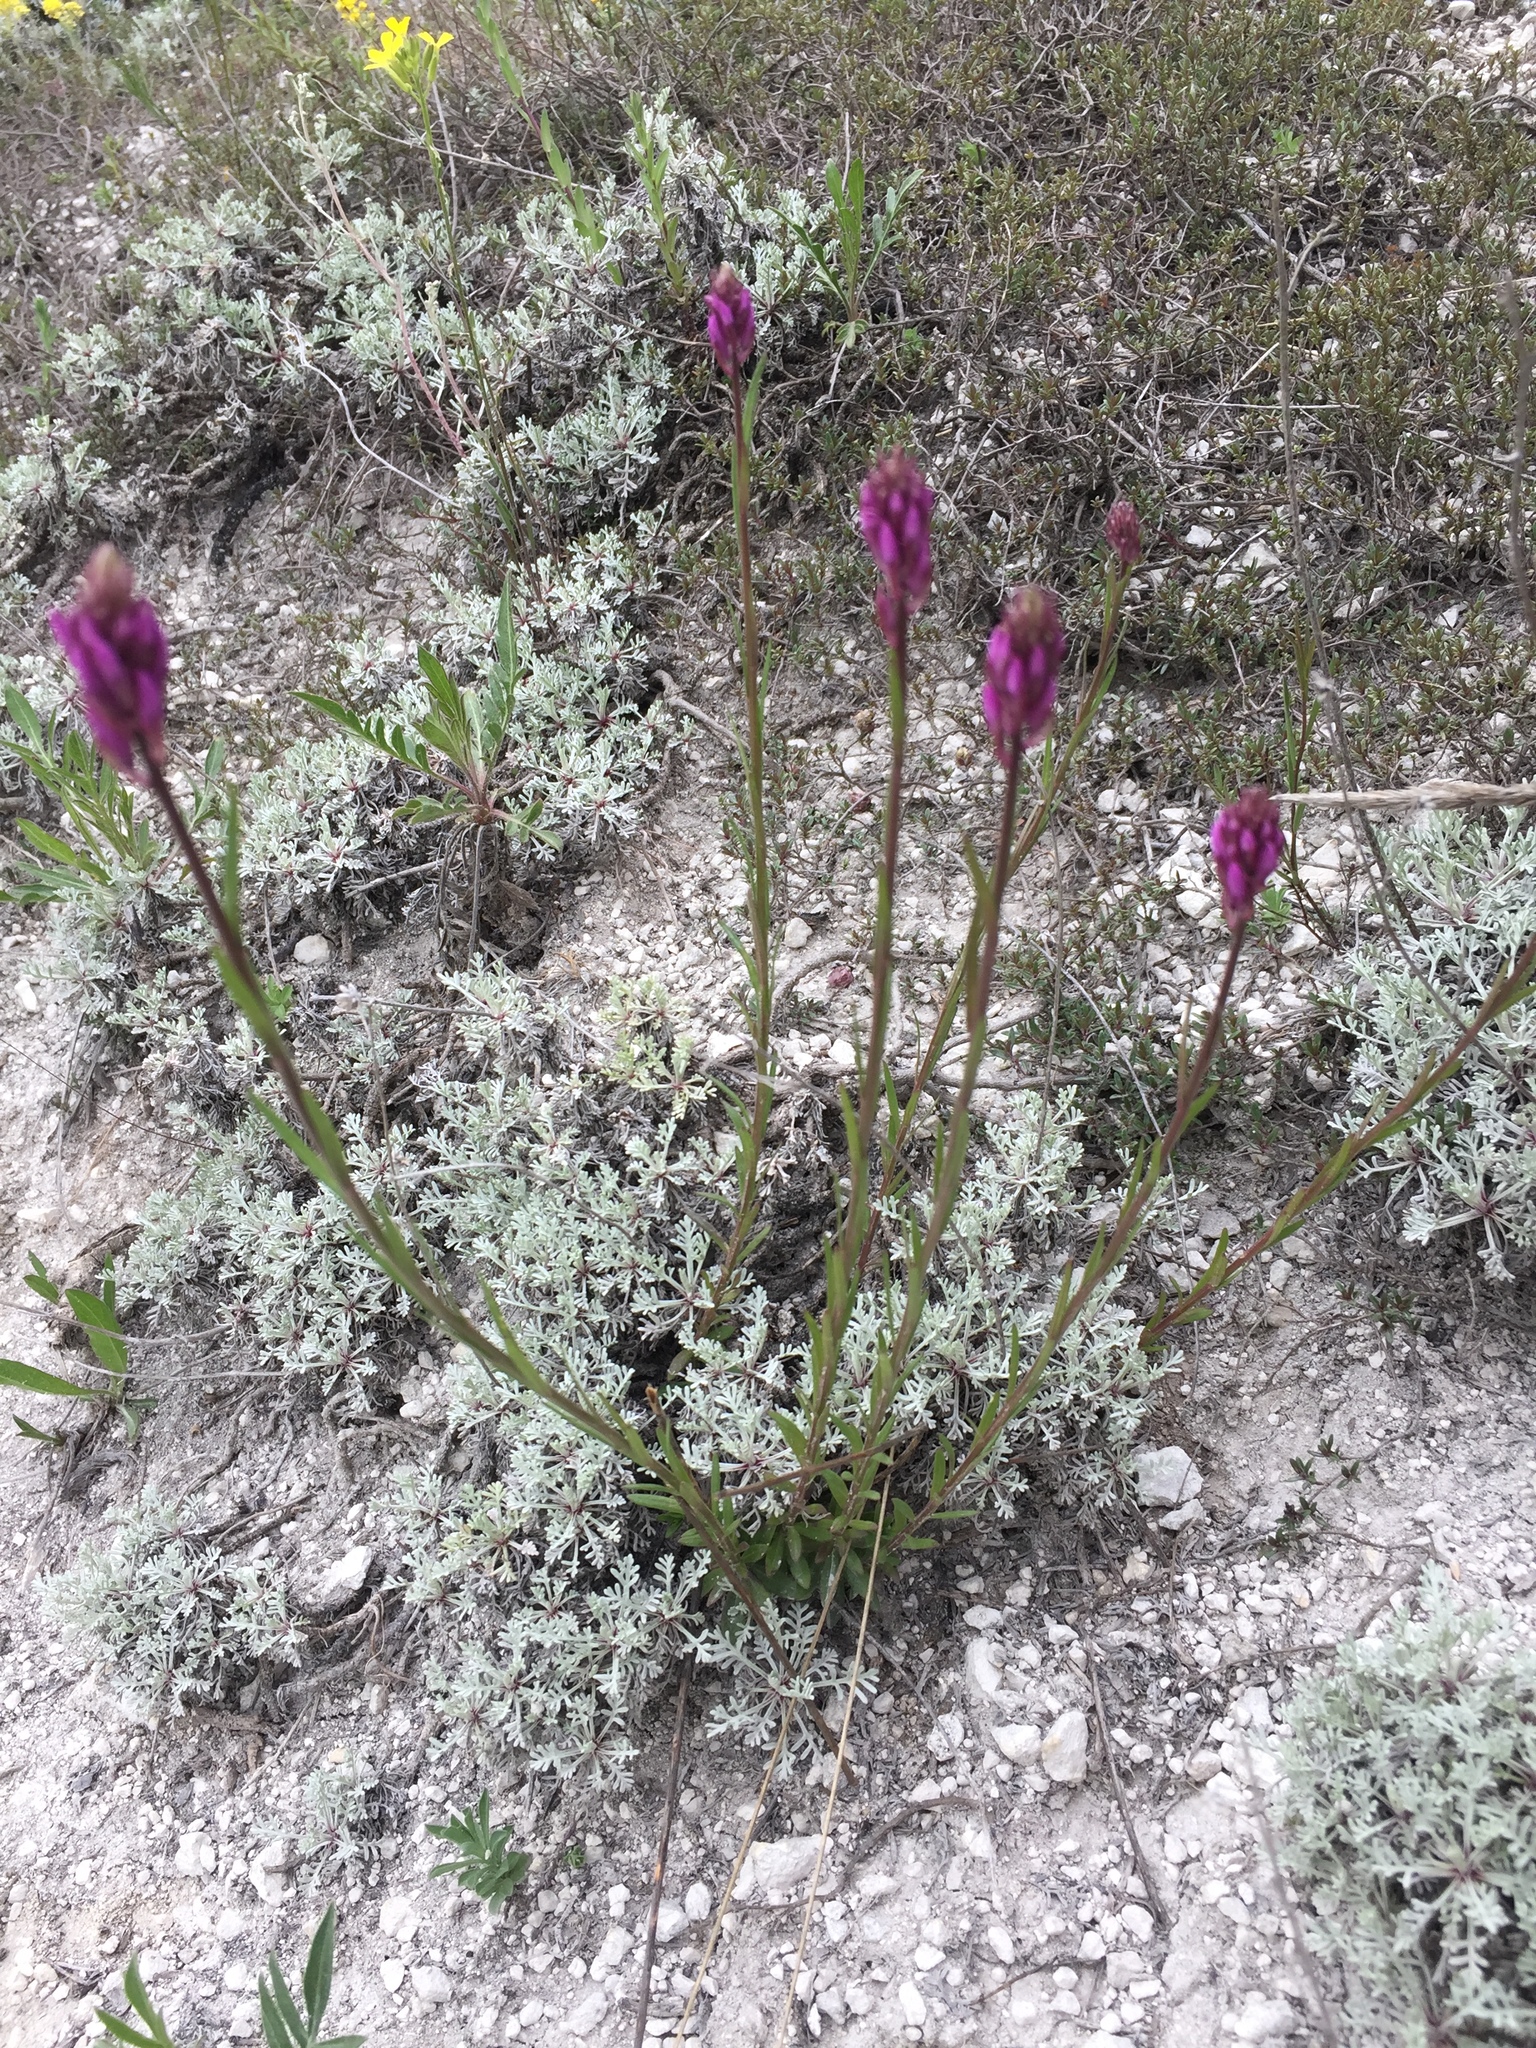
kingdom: Plantae
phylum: Tracheophyta
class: Magnoliopsida
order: Fabales
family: Polygalaceae
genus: Polygala
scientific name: Polygala nicaeensis
